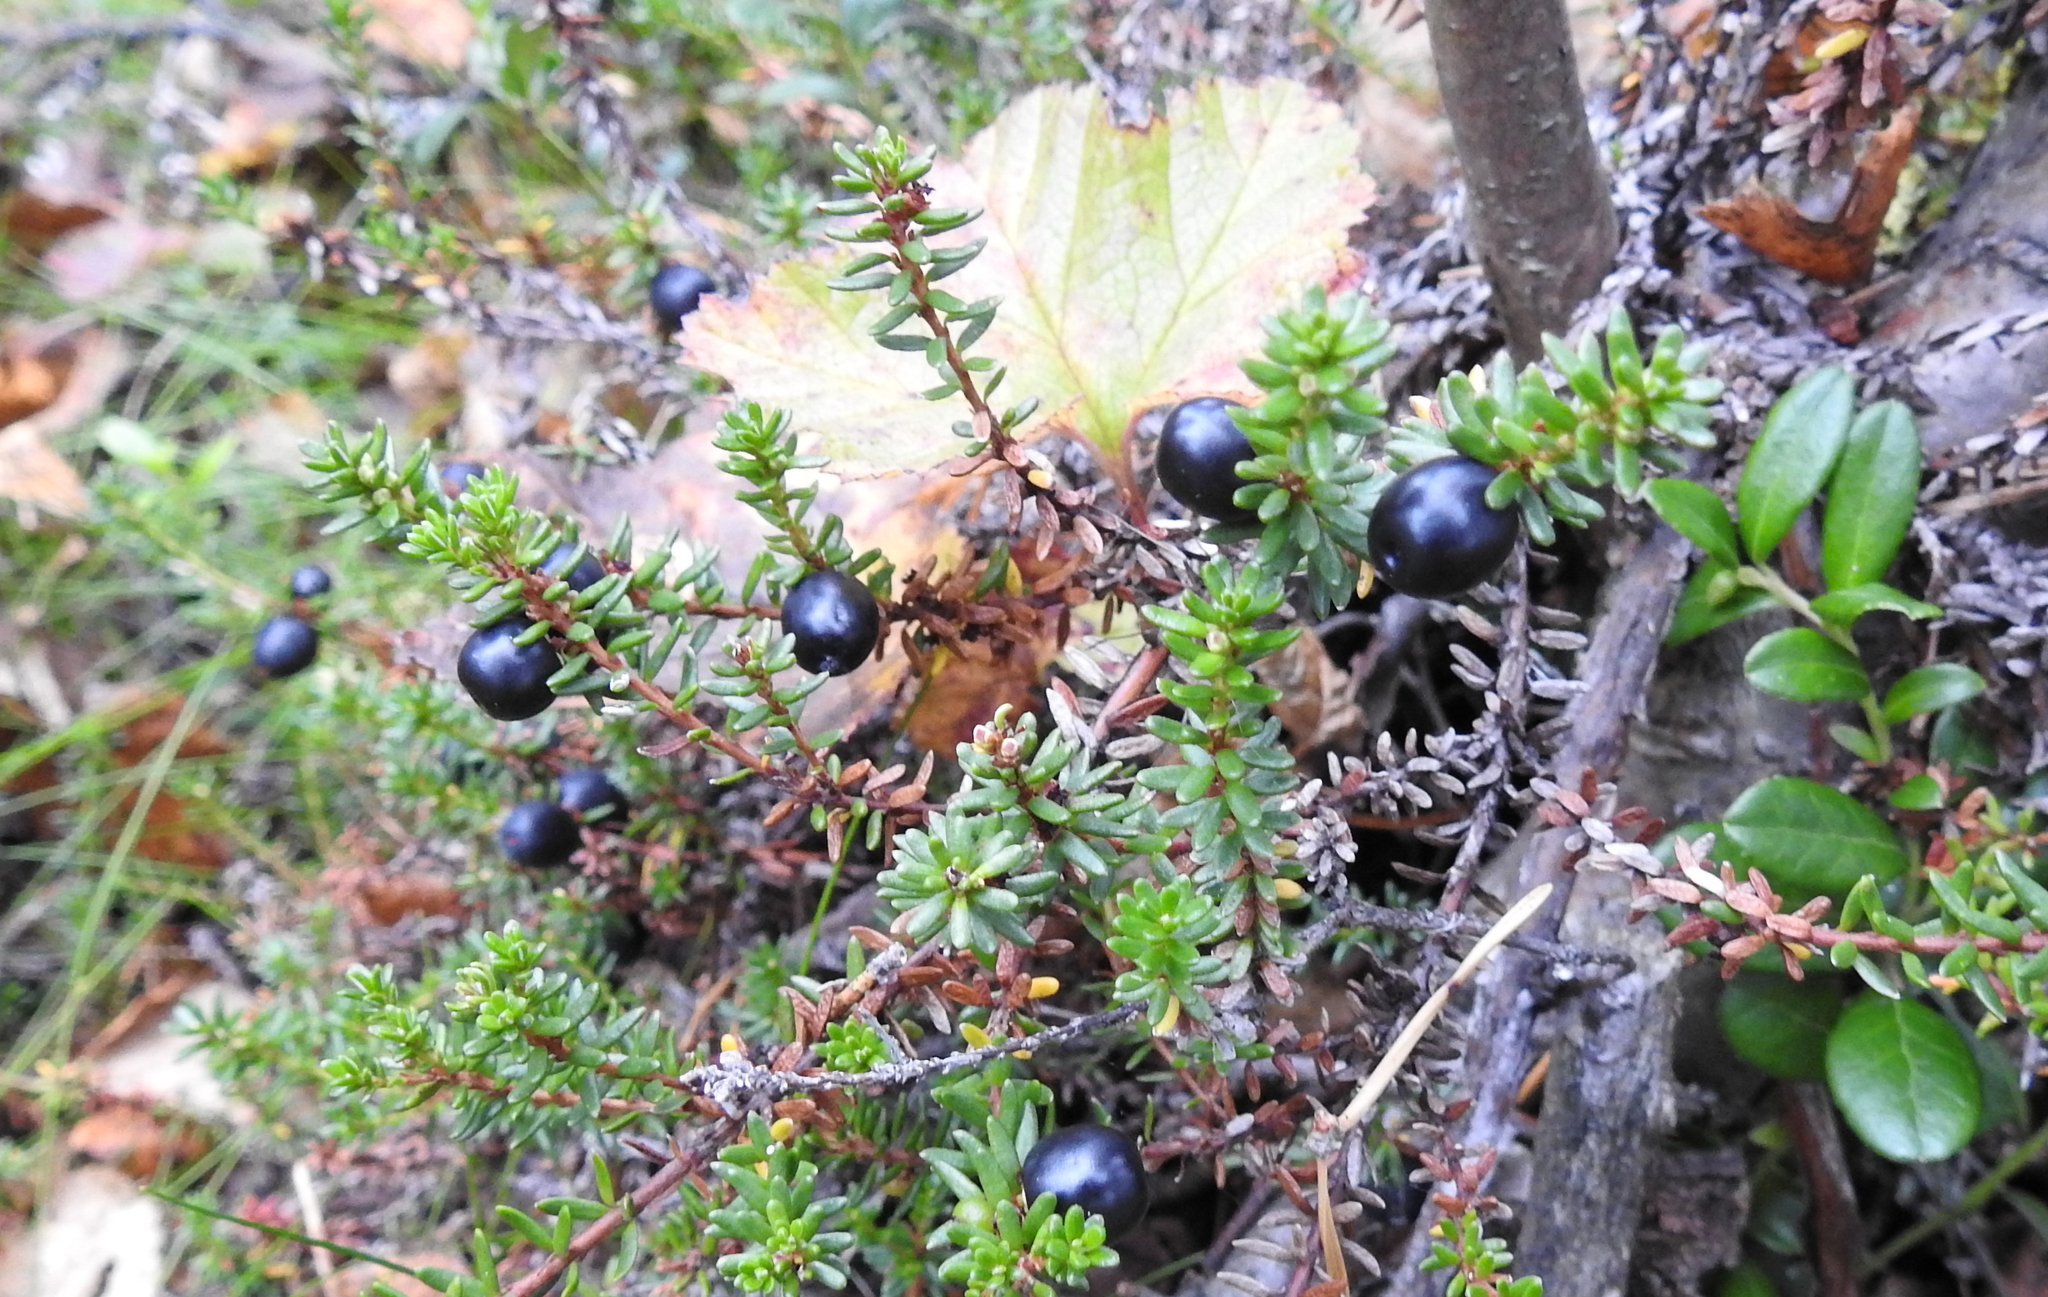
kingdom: Plantae
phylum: Tracheophyta
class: Magnoliopsida
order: Ericales
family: Ericaceae
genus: Empetrum
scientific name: Empetrum nigrum
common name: Black crowberry
